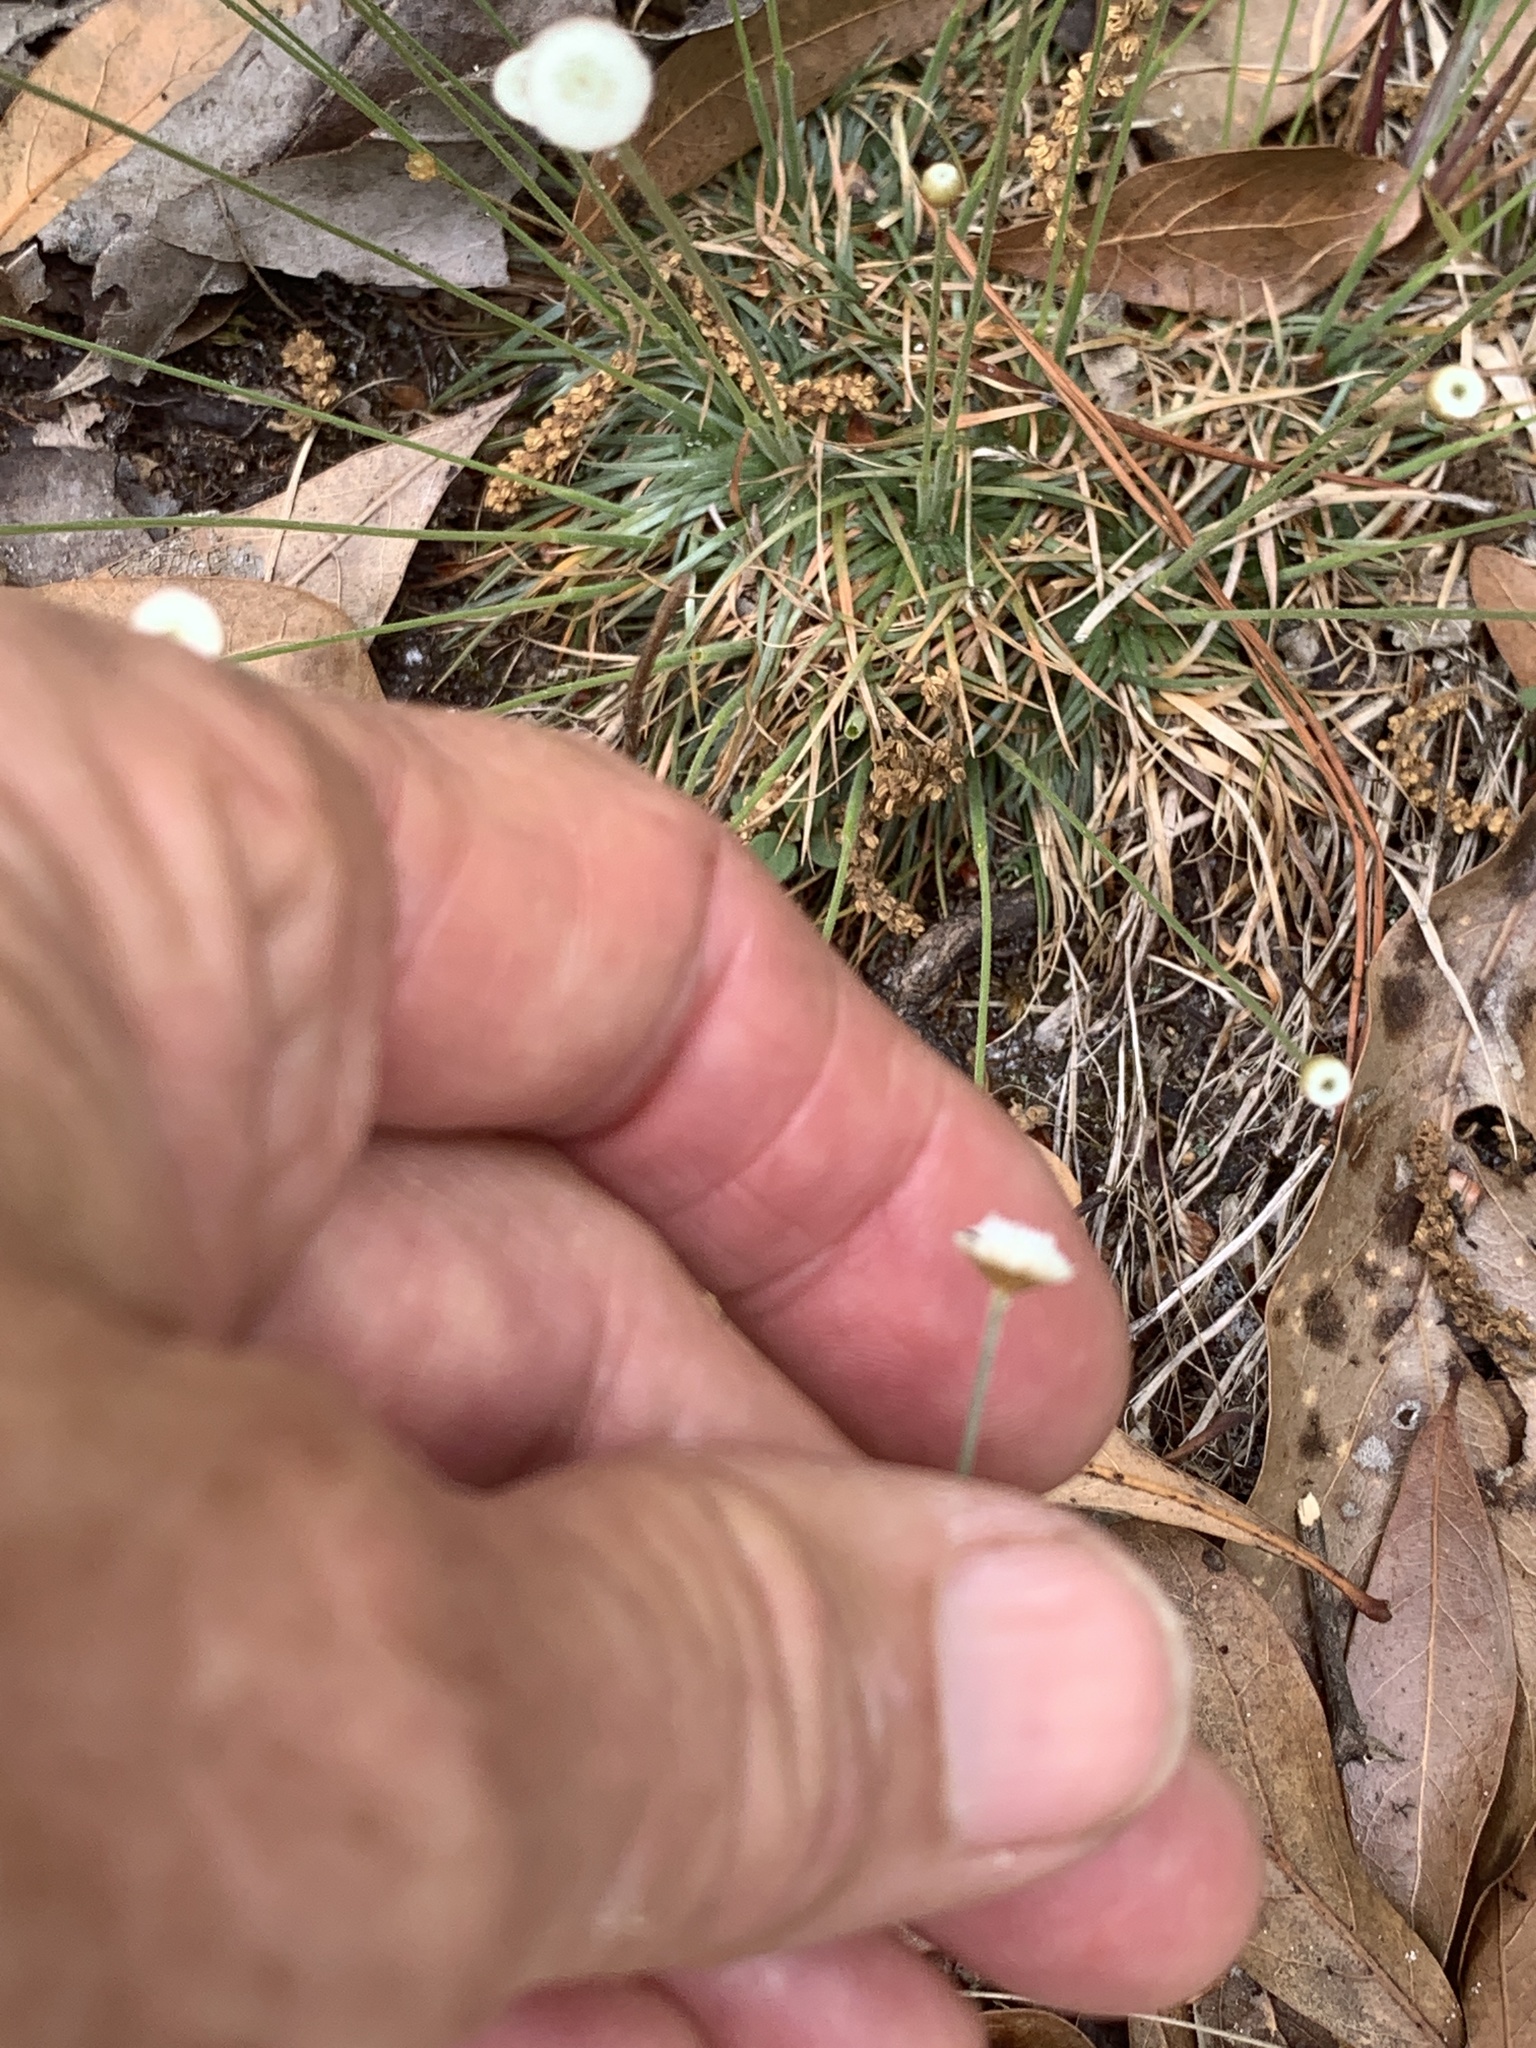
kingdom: Plantae
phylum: Tracheophyta
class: Liliopsida
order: Poales
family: Eriocaulaceae
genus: Syngonanthus
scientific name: Syngonanthus flavidulus
